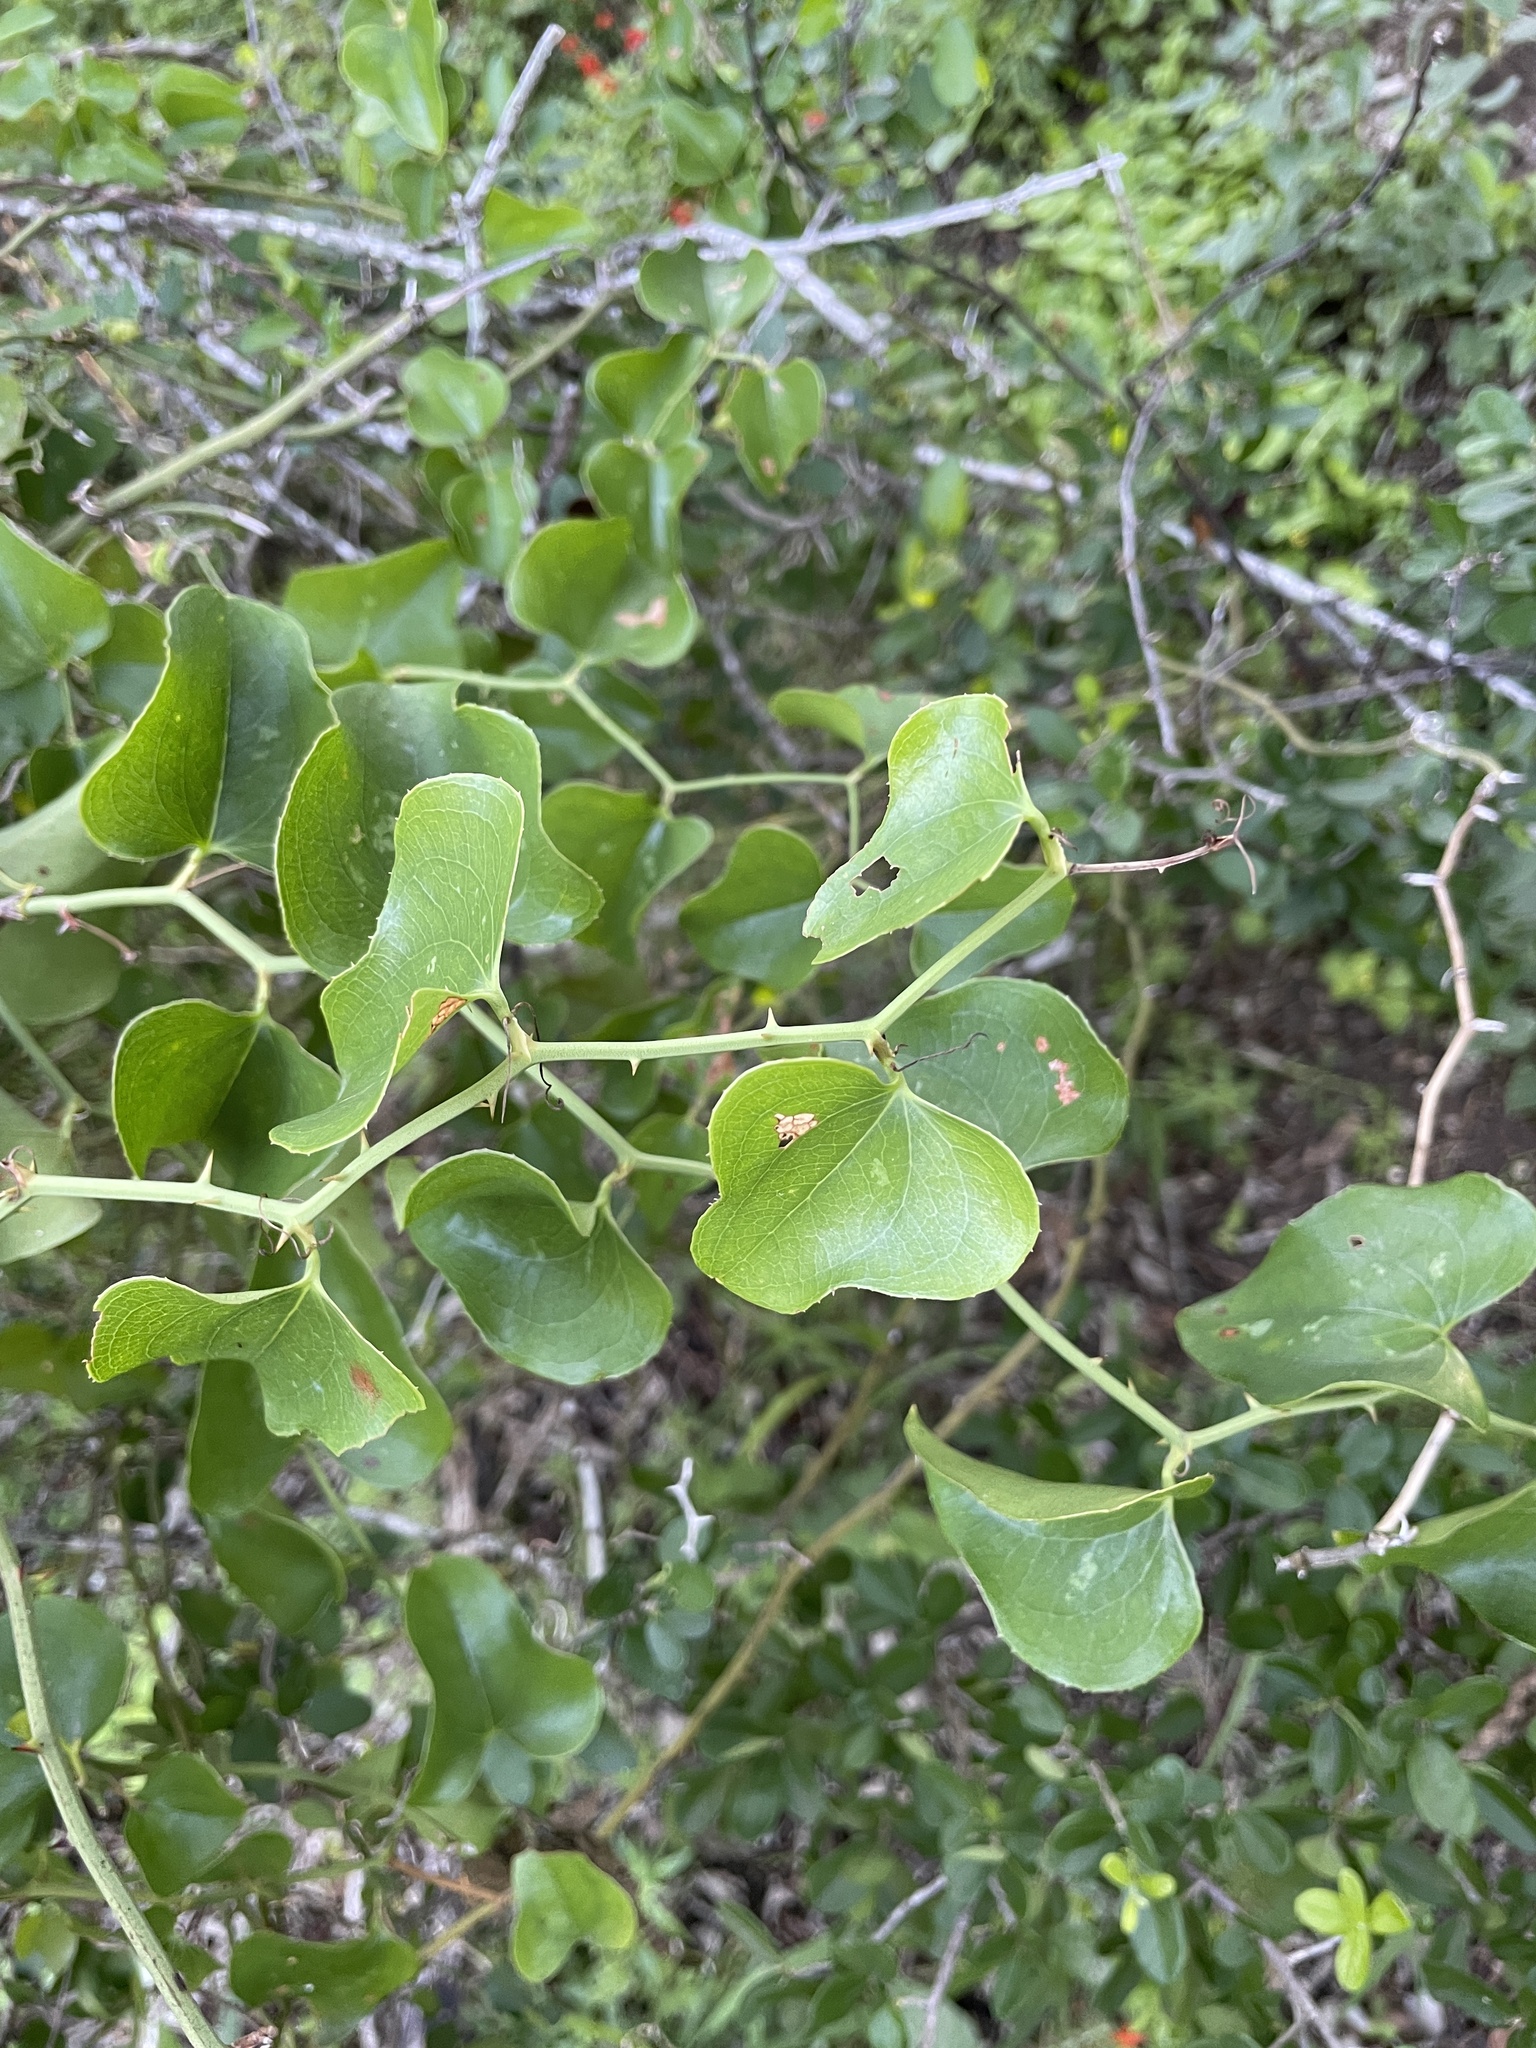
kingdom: Plantae
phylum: Tracheophyta
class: Liliopsida
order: Liliales
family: Smilacaceae
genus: Smilax
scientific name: Smilax bona-nox
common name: Catbrier
